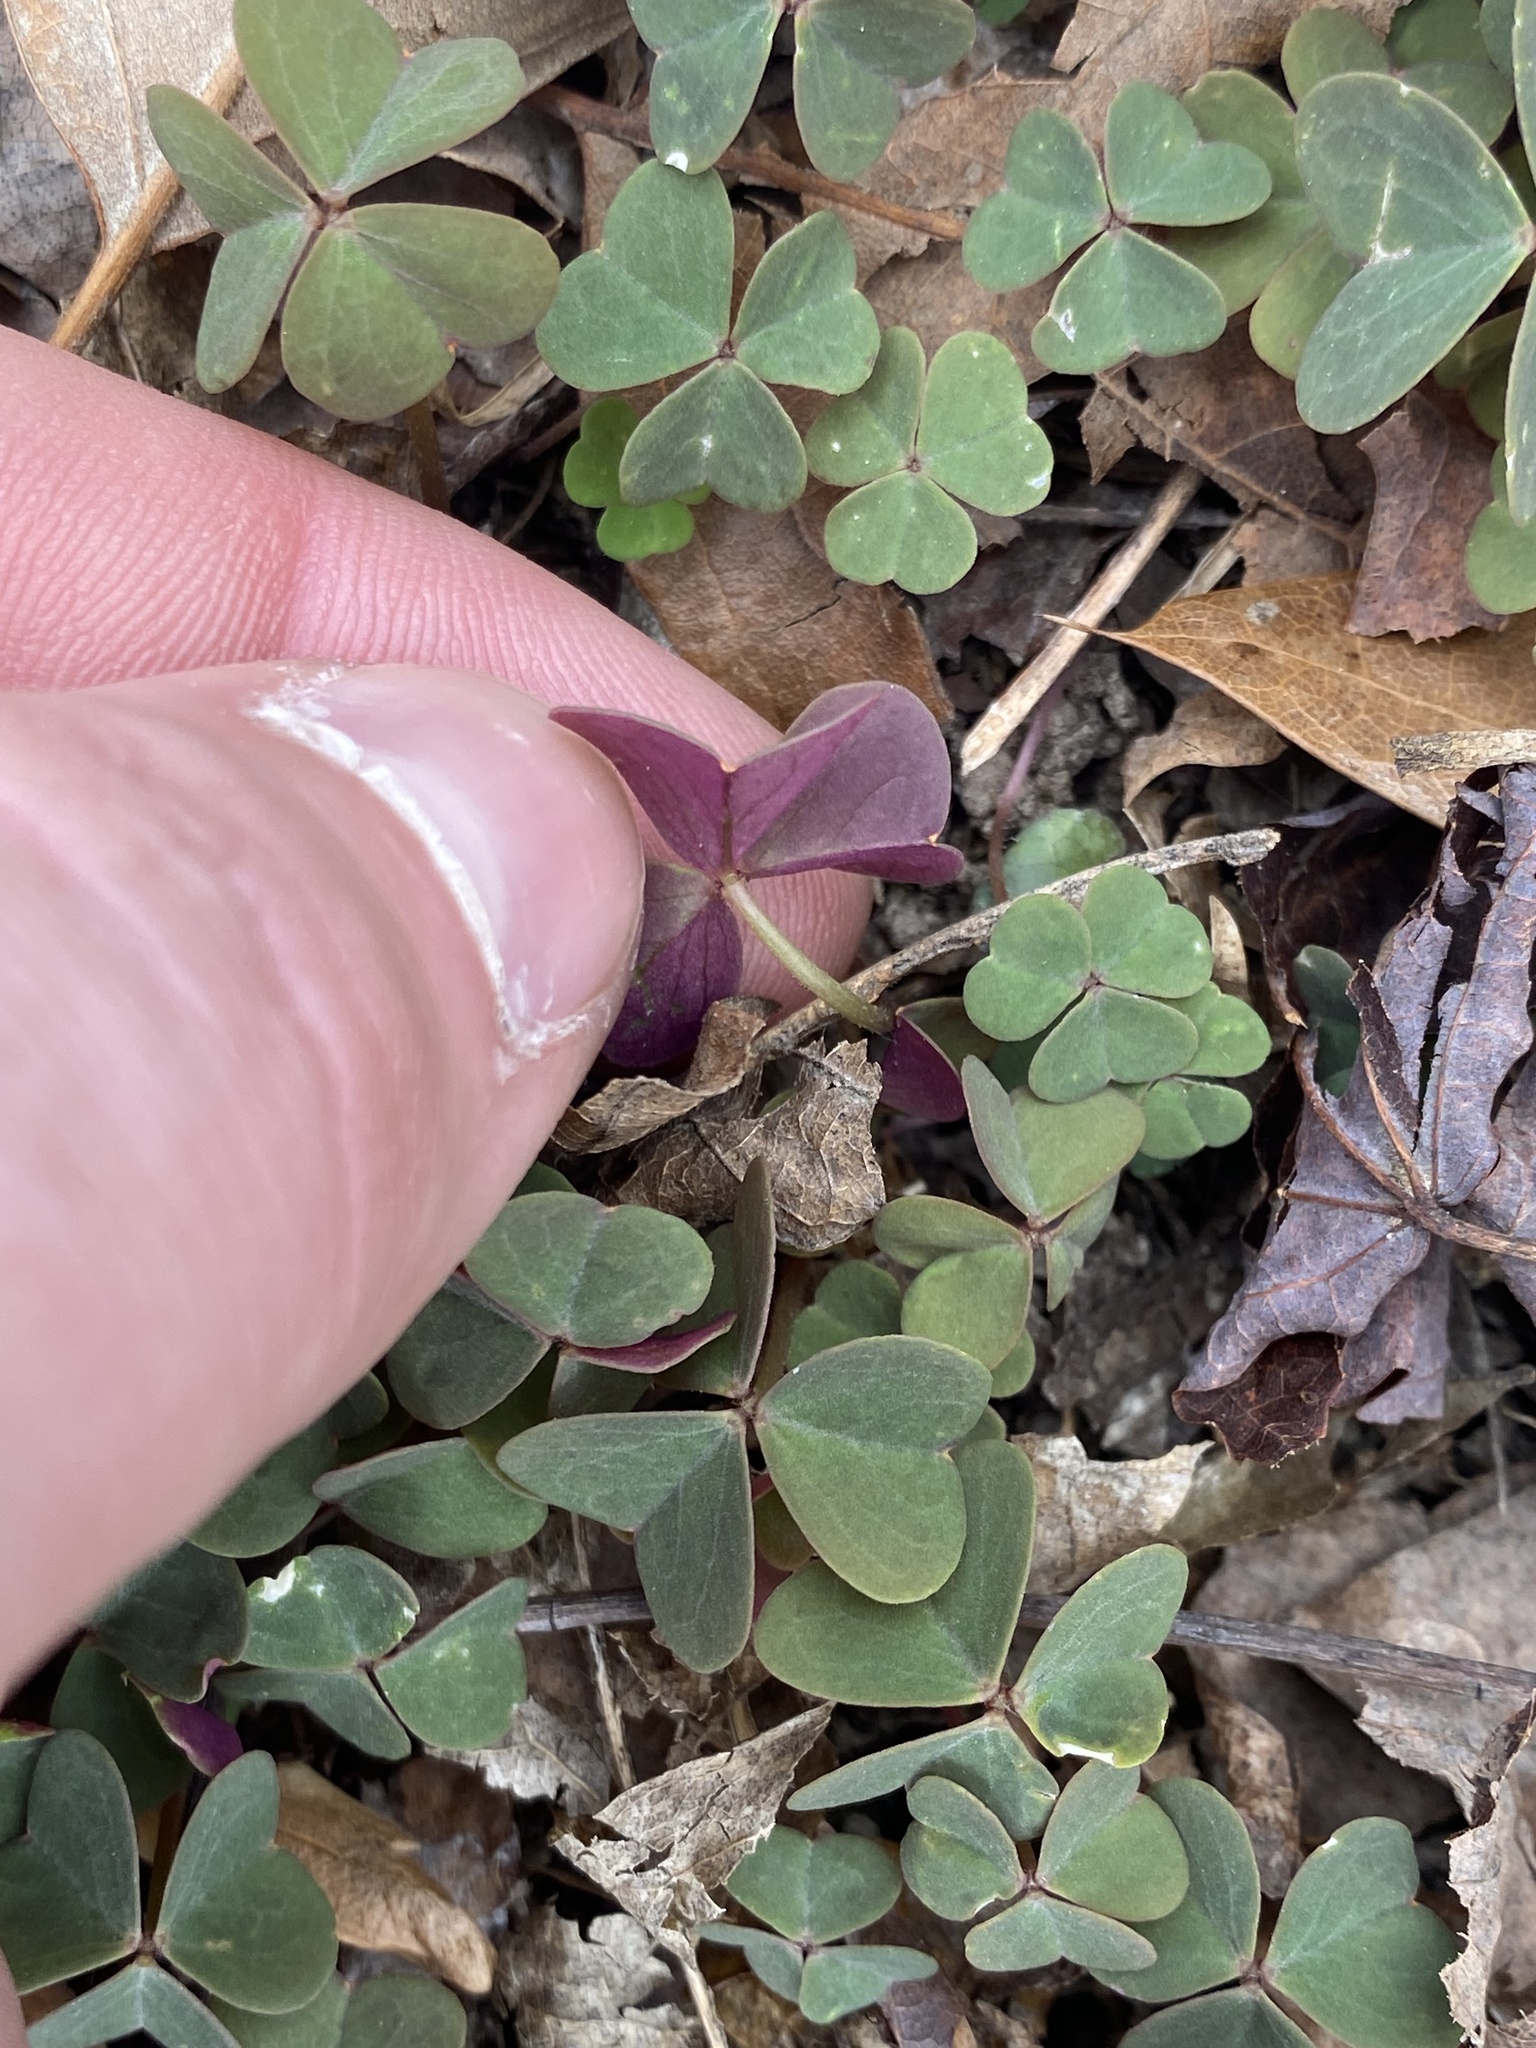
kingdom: Plantae
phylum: Tracheophyta
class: Magnoliopsida
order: Oxalidales
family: Oxalidaceae
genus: Oxalis
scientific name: Oxalis violacea
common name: Violet wood-sorrel
